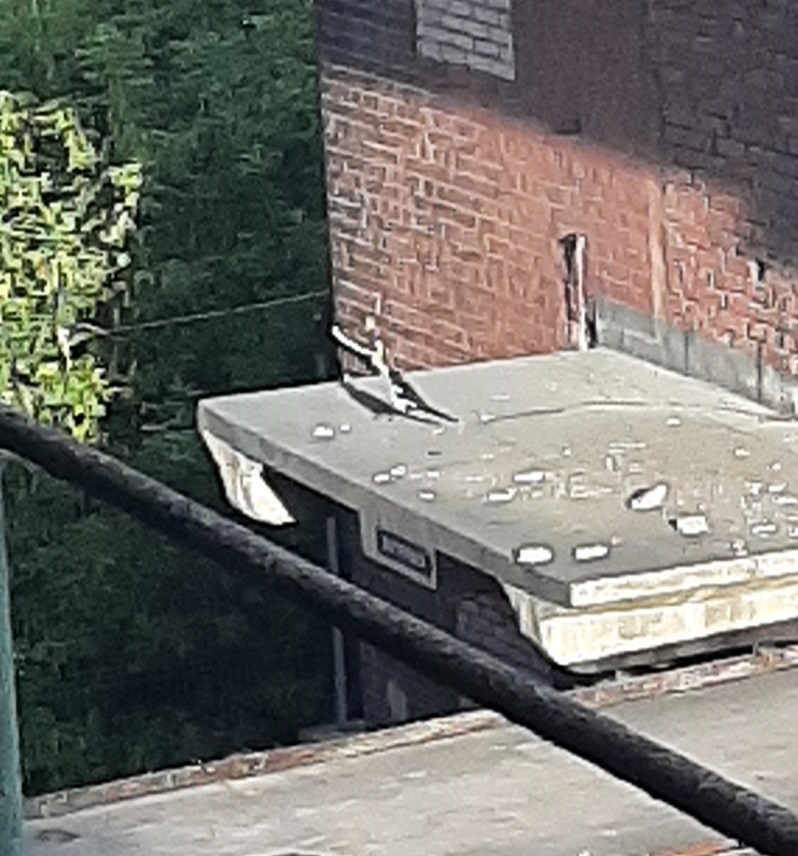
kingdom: Animalia
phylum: Chordata
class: Aves
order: Passeriformes
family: Corvidae
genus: Pica
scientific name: Pica pica
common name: Eurasian magpie
